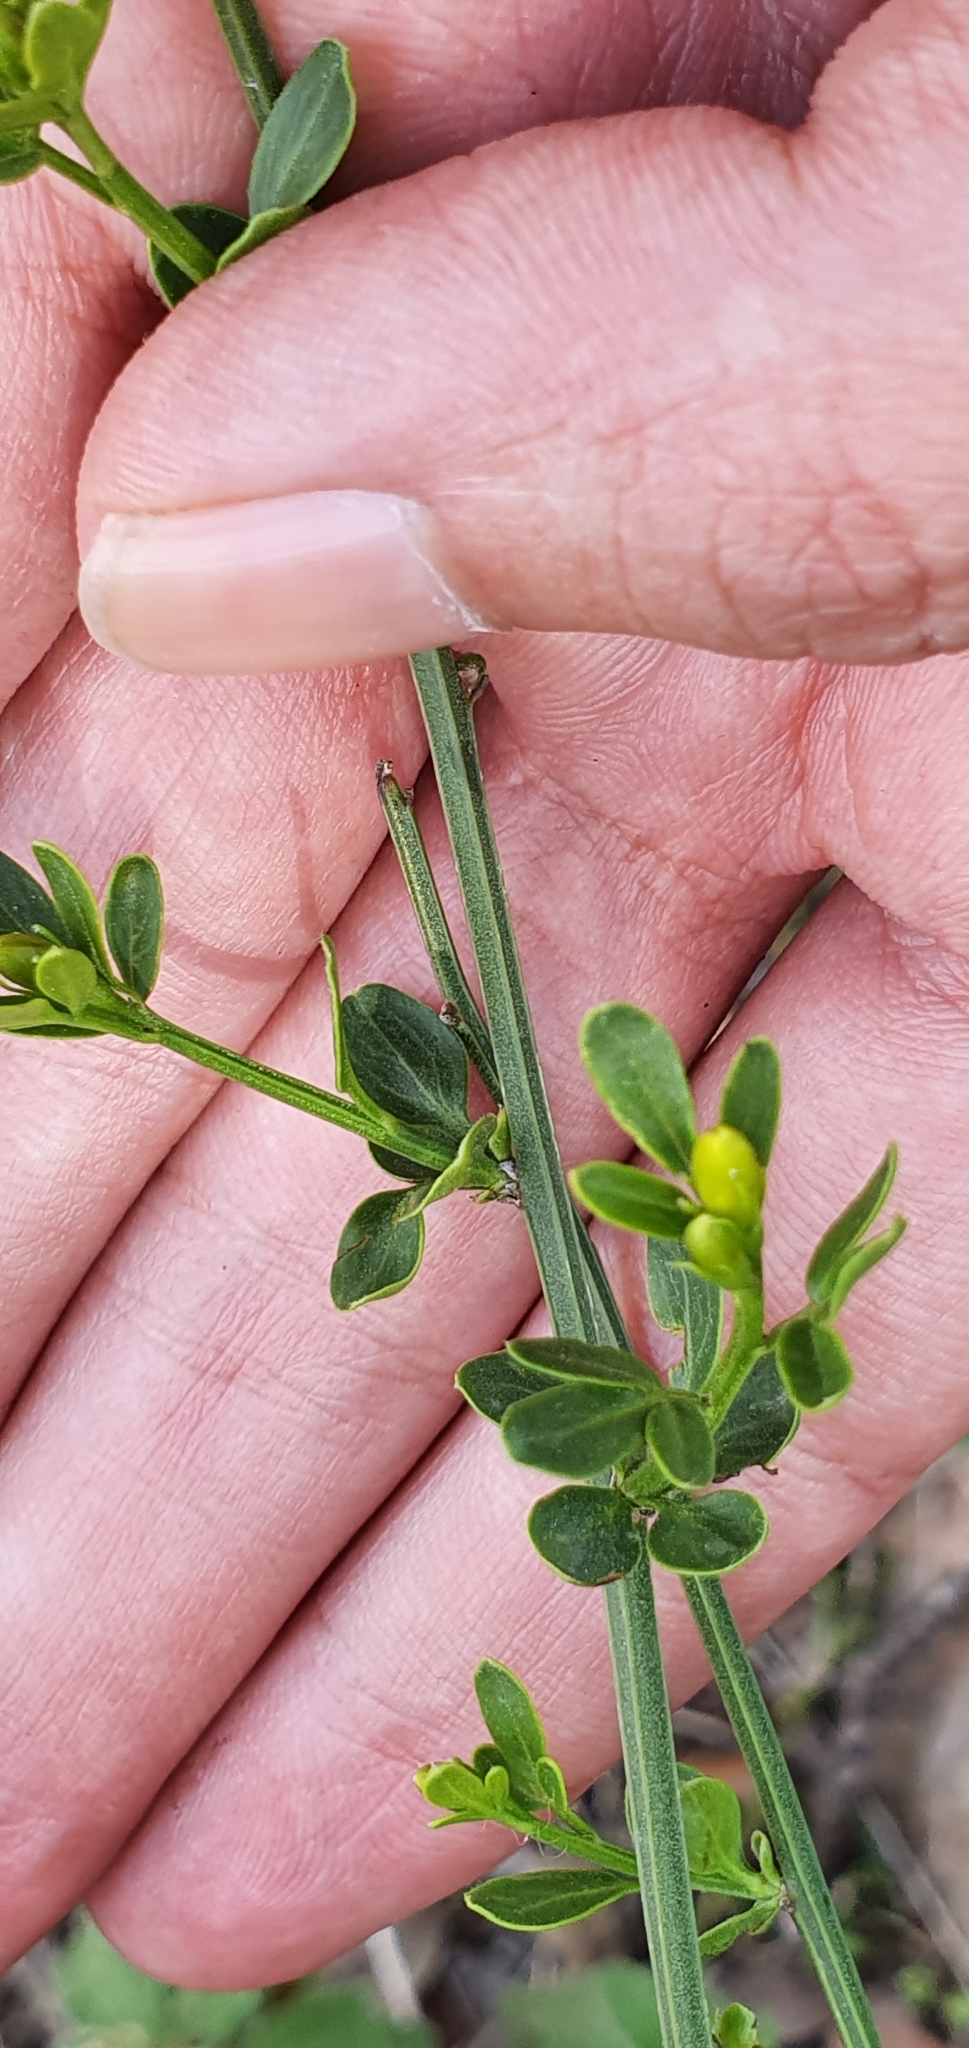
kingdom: Plantae
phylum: Tracheophyta
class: Magnoliopsida
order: Lamiales
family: Oleaceae
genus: Chrysojasminum
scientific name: Chrysojasminum fruticans
